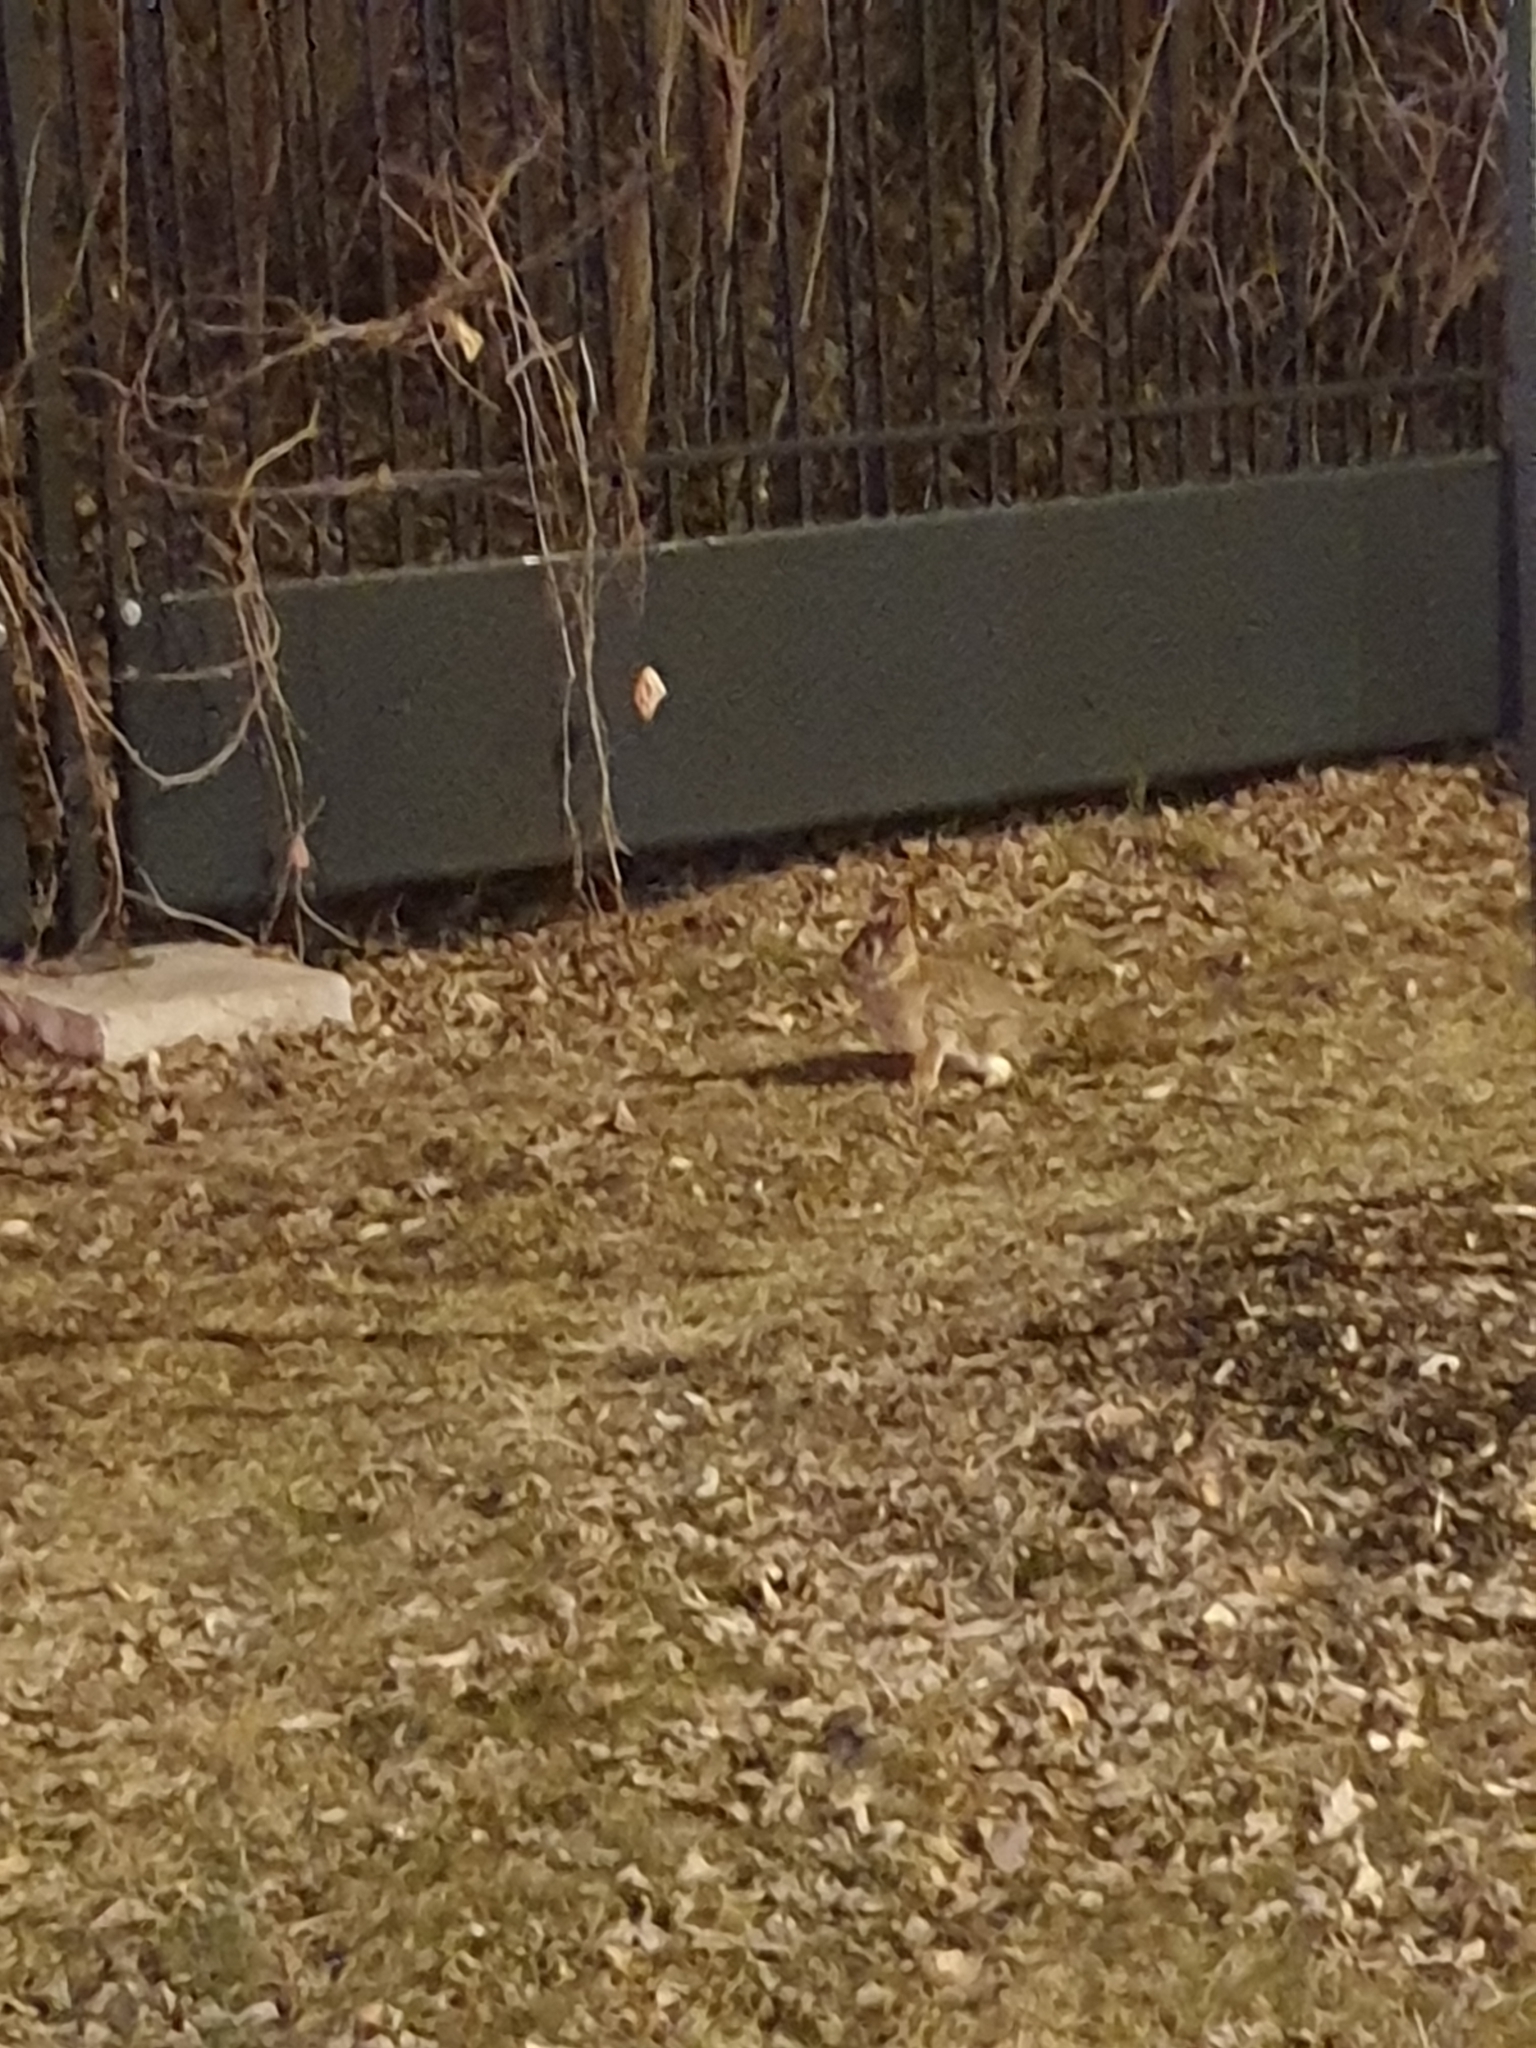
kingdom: Animalia
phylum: Chordata
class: Mammalia
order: Lagomorpha
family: Leporidae
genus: Sylvilagus
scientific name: Sylvilagus floridanus
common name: Eastern cottontail
